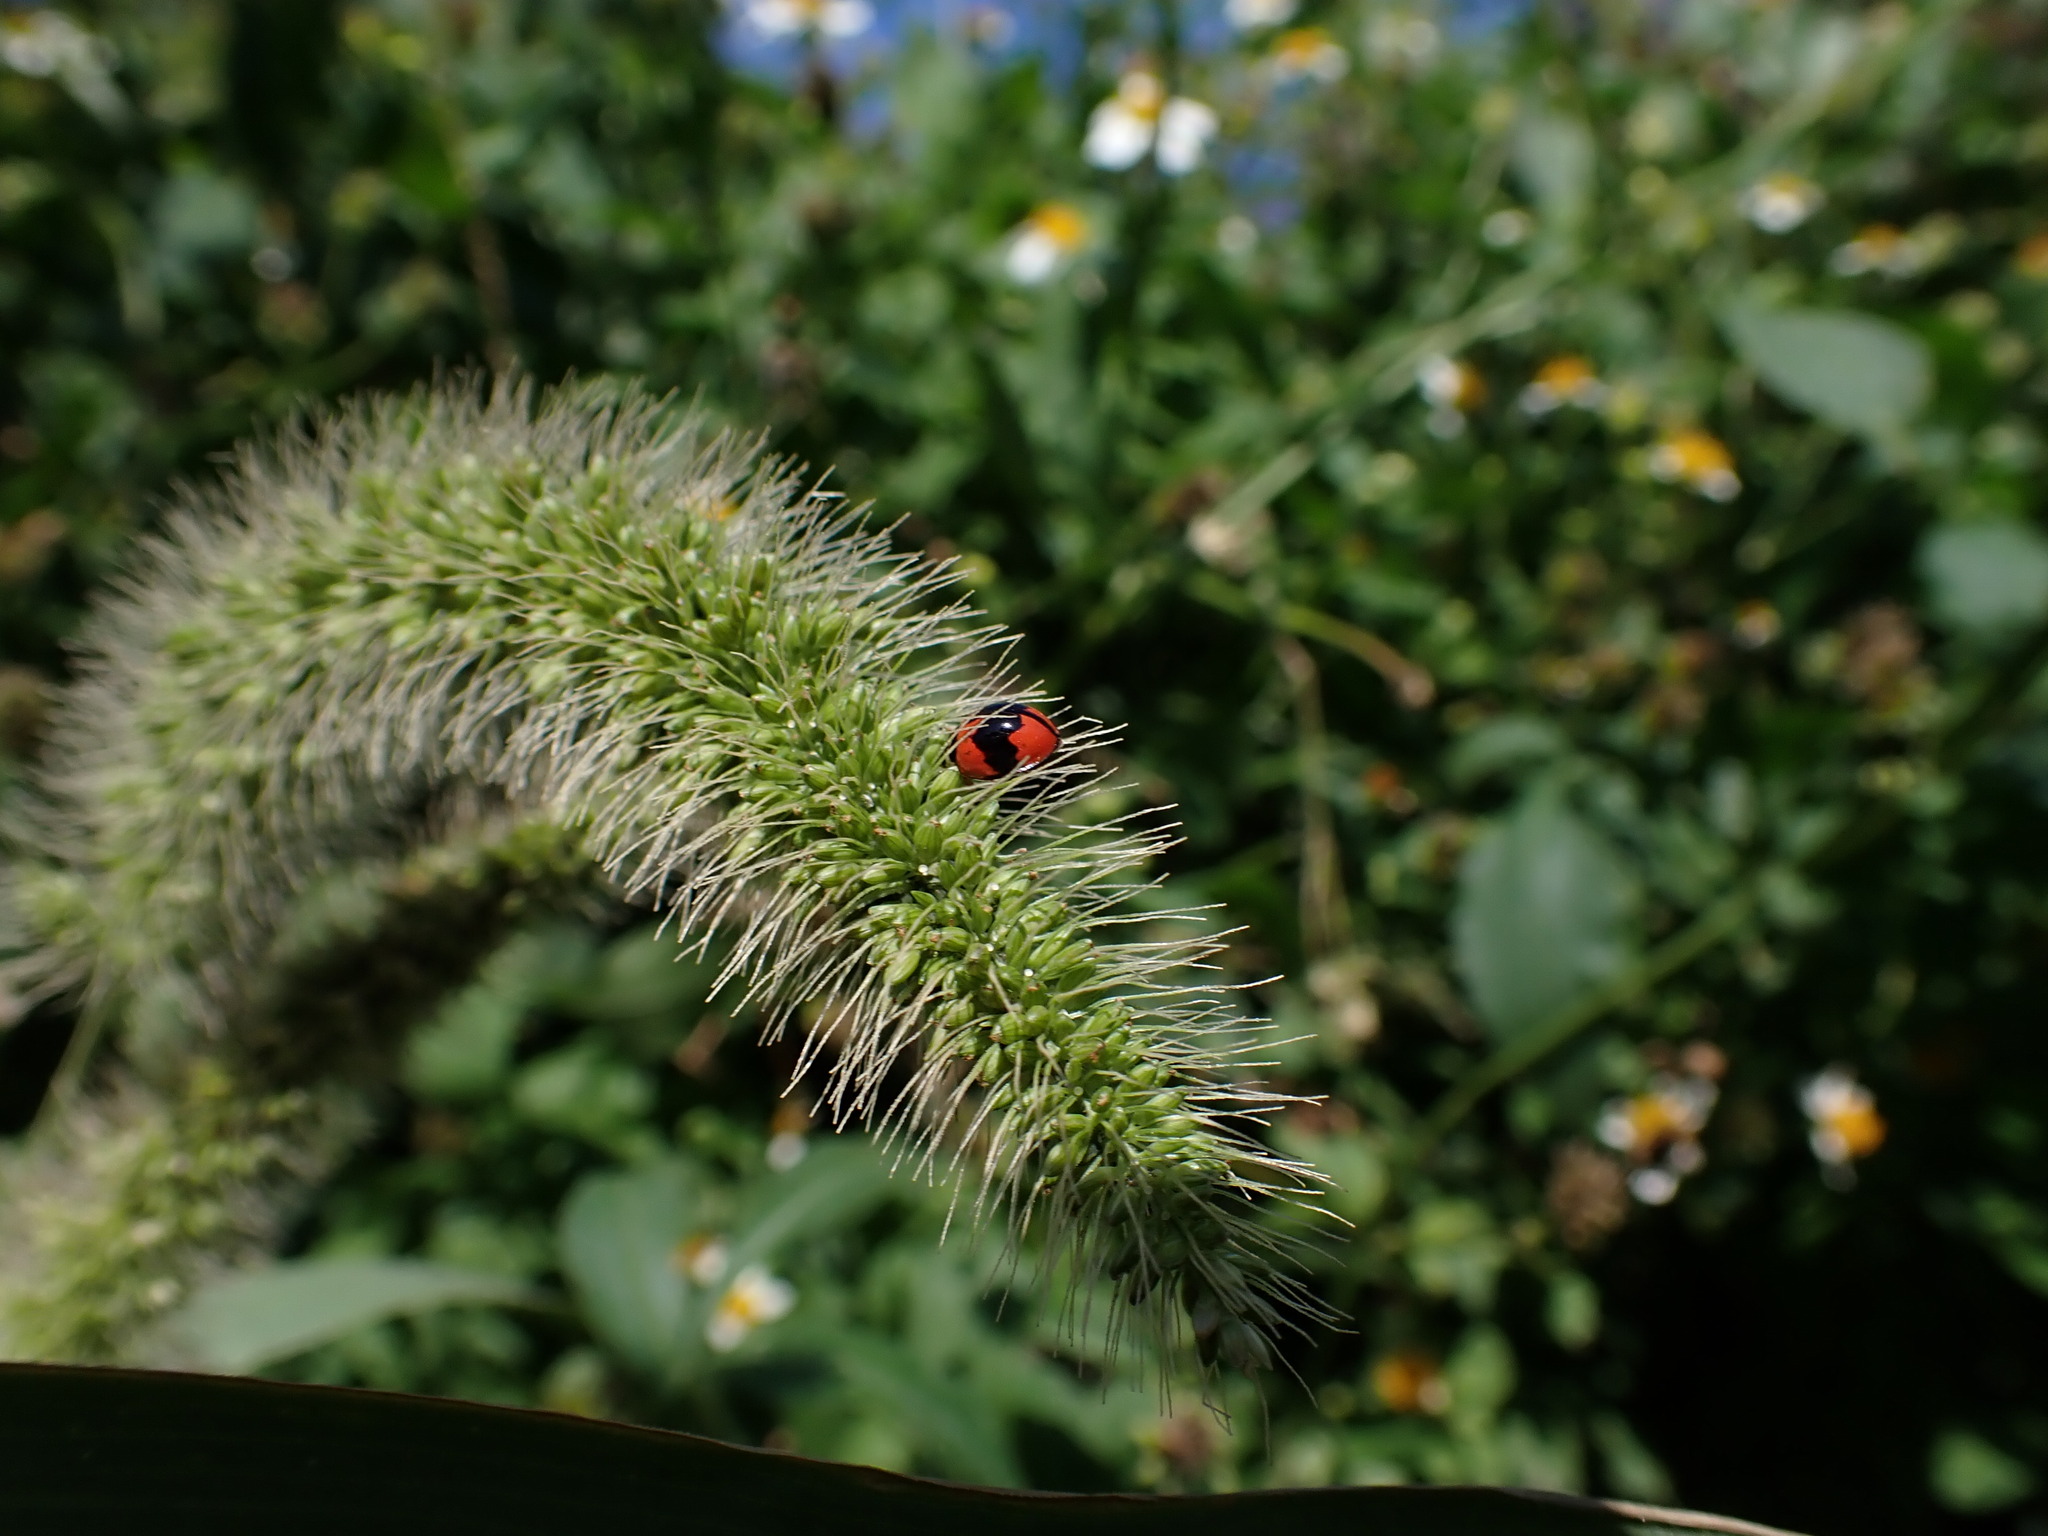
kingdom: Animalia
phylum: Arthropoda
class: Insecta
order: Coleoptera
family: Coccinellidae
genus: Cheilomenes
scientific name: Cheilomenes sexmaculata
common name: Ladybird beetle
